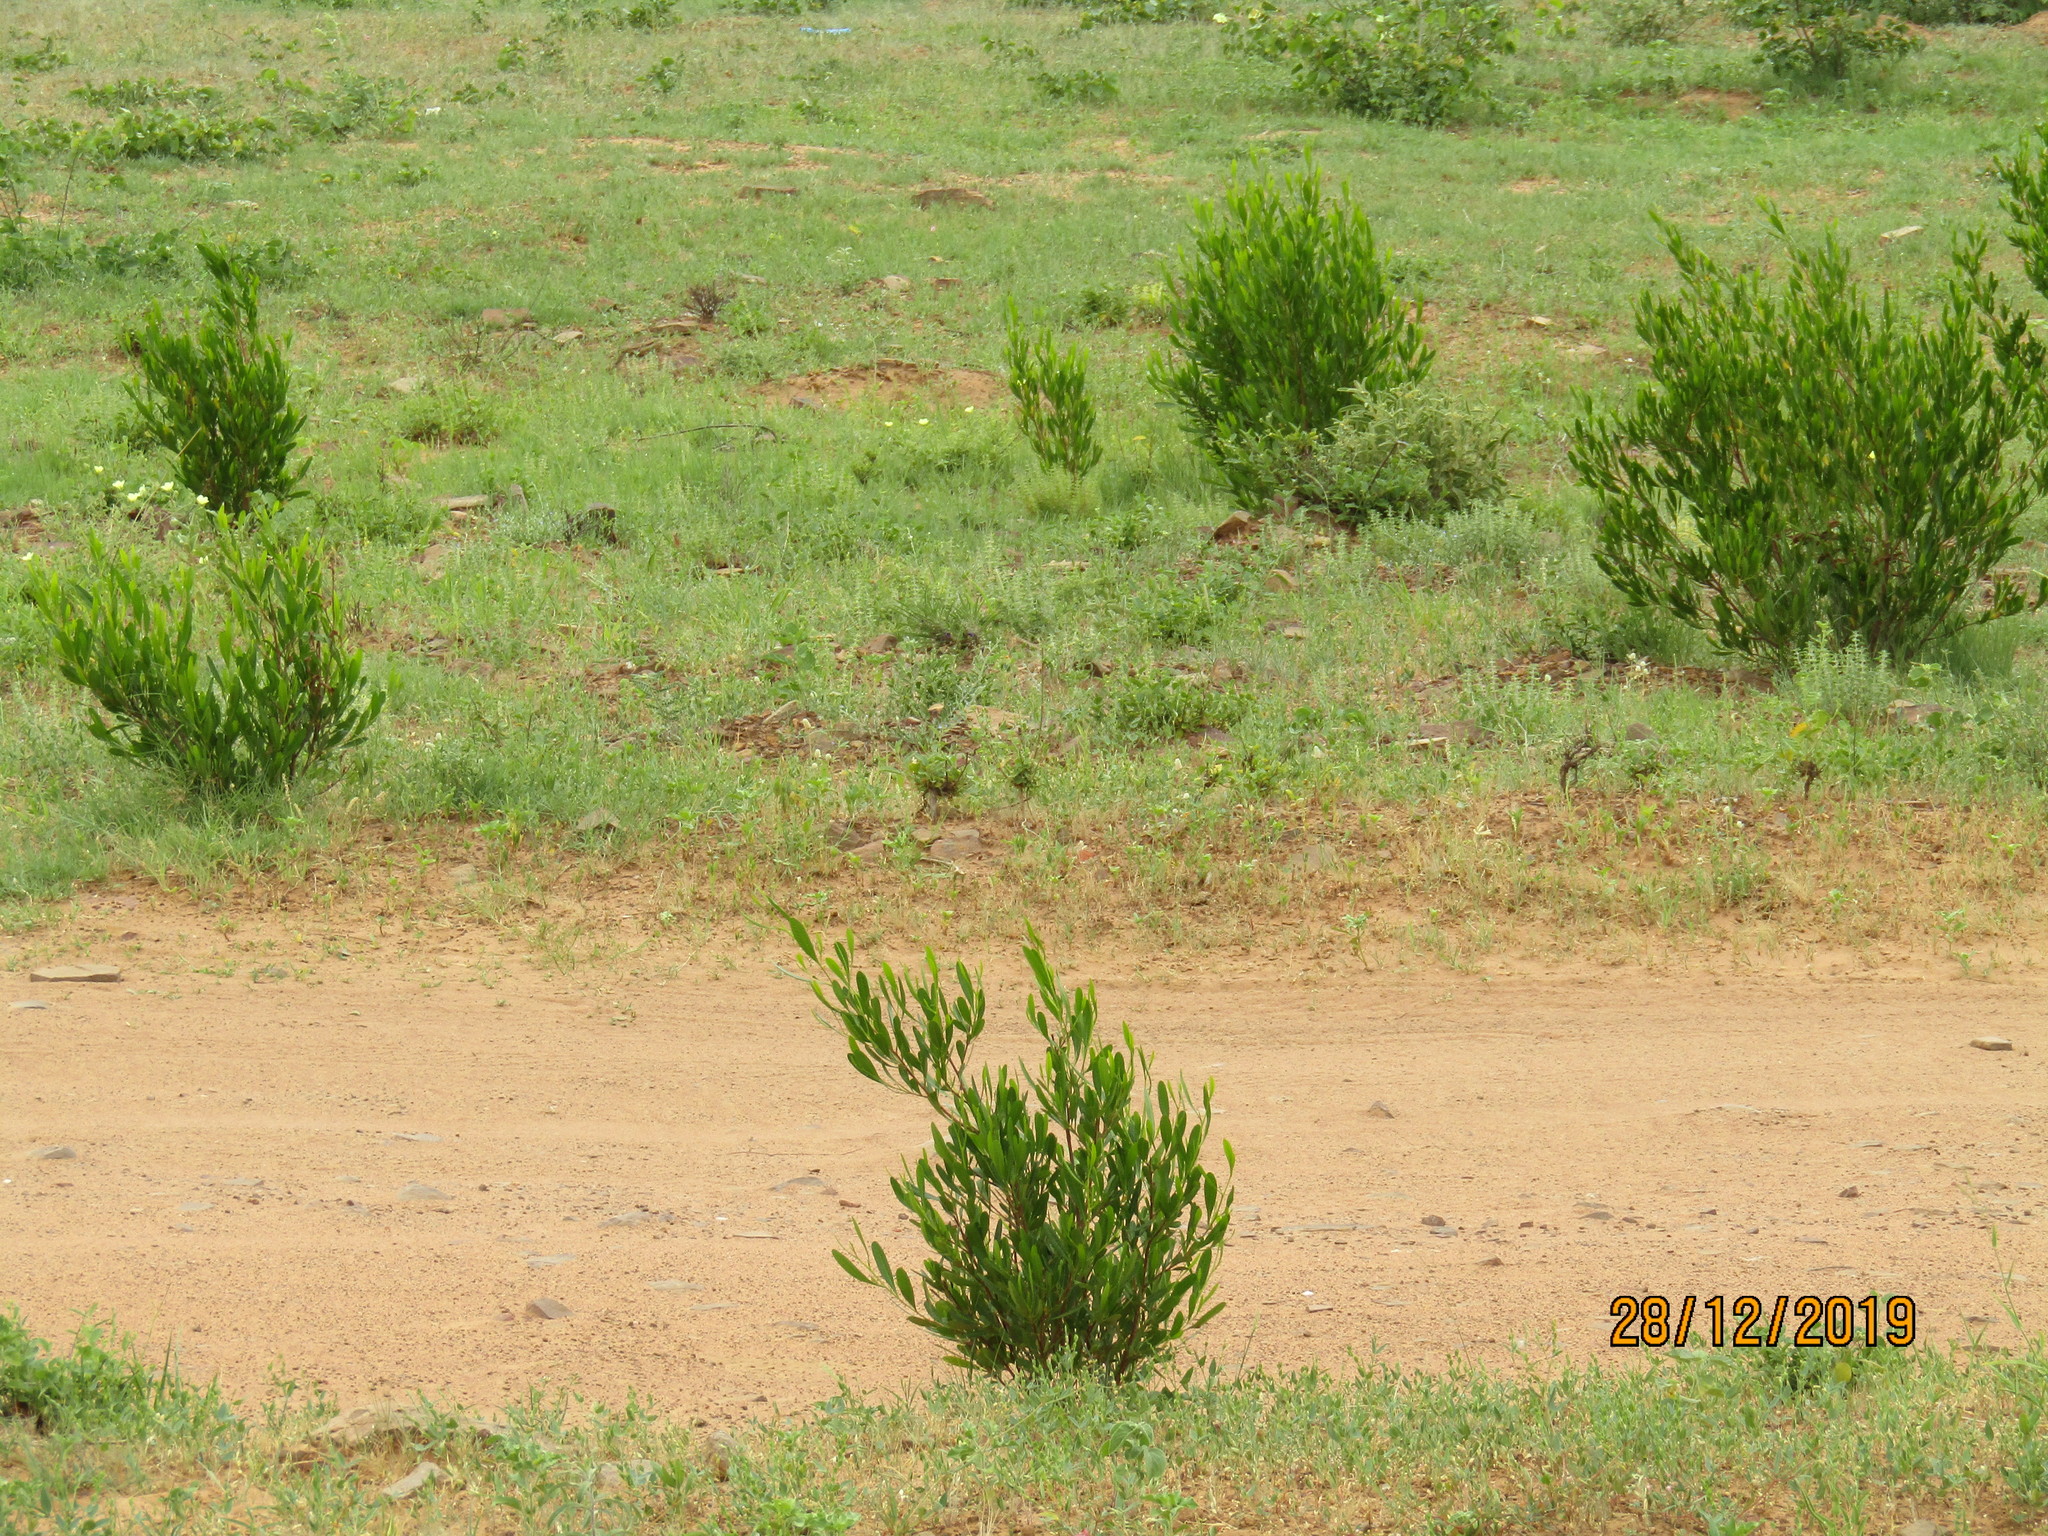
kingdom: Plantae
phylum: Tracheophyta
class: Magnoliopsida
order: Sapindales
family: Sapindaceae
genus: Dodonaea
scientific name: Dodonaea viscosa
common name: Hopbush
